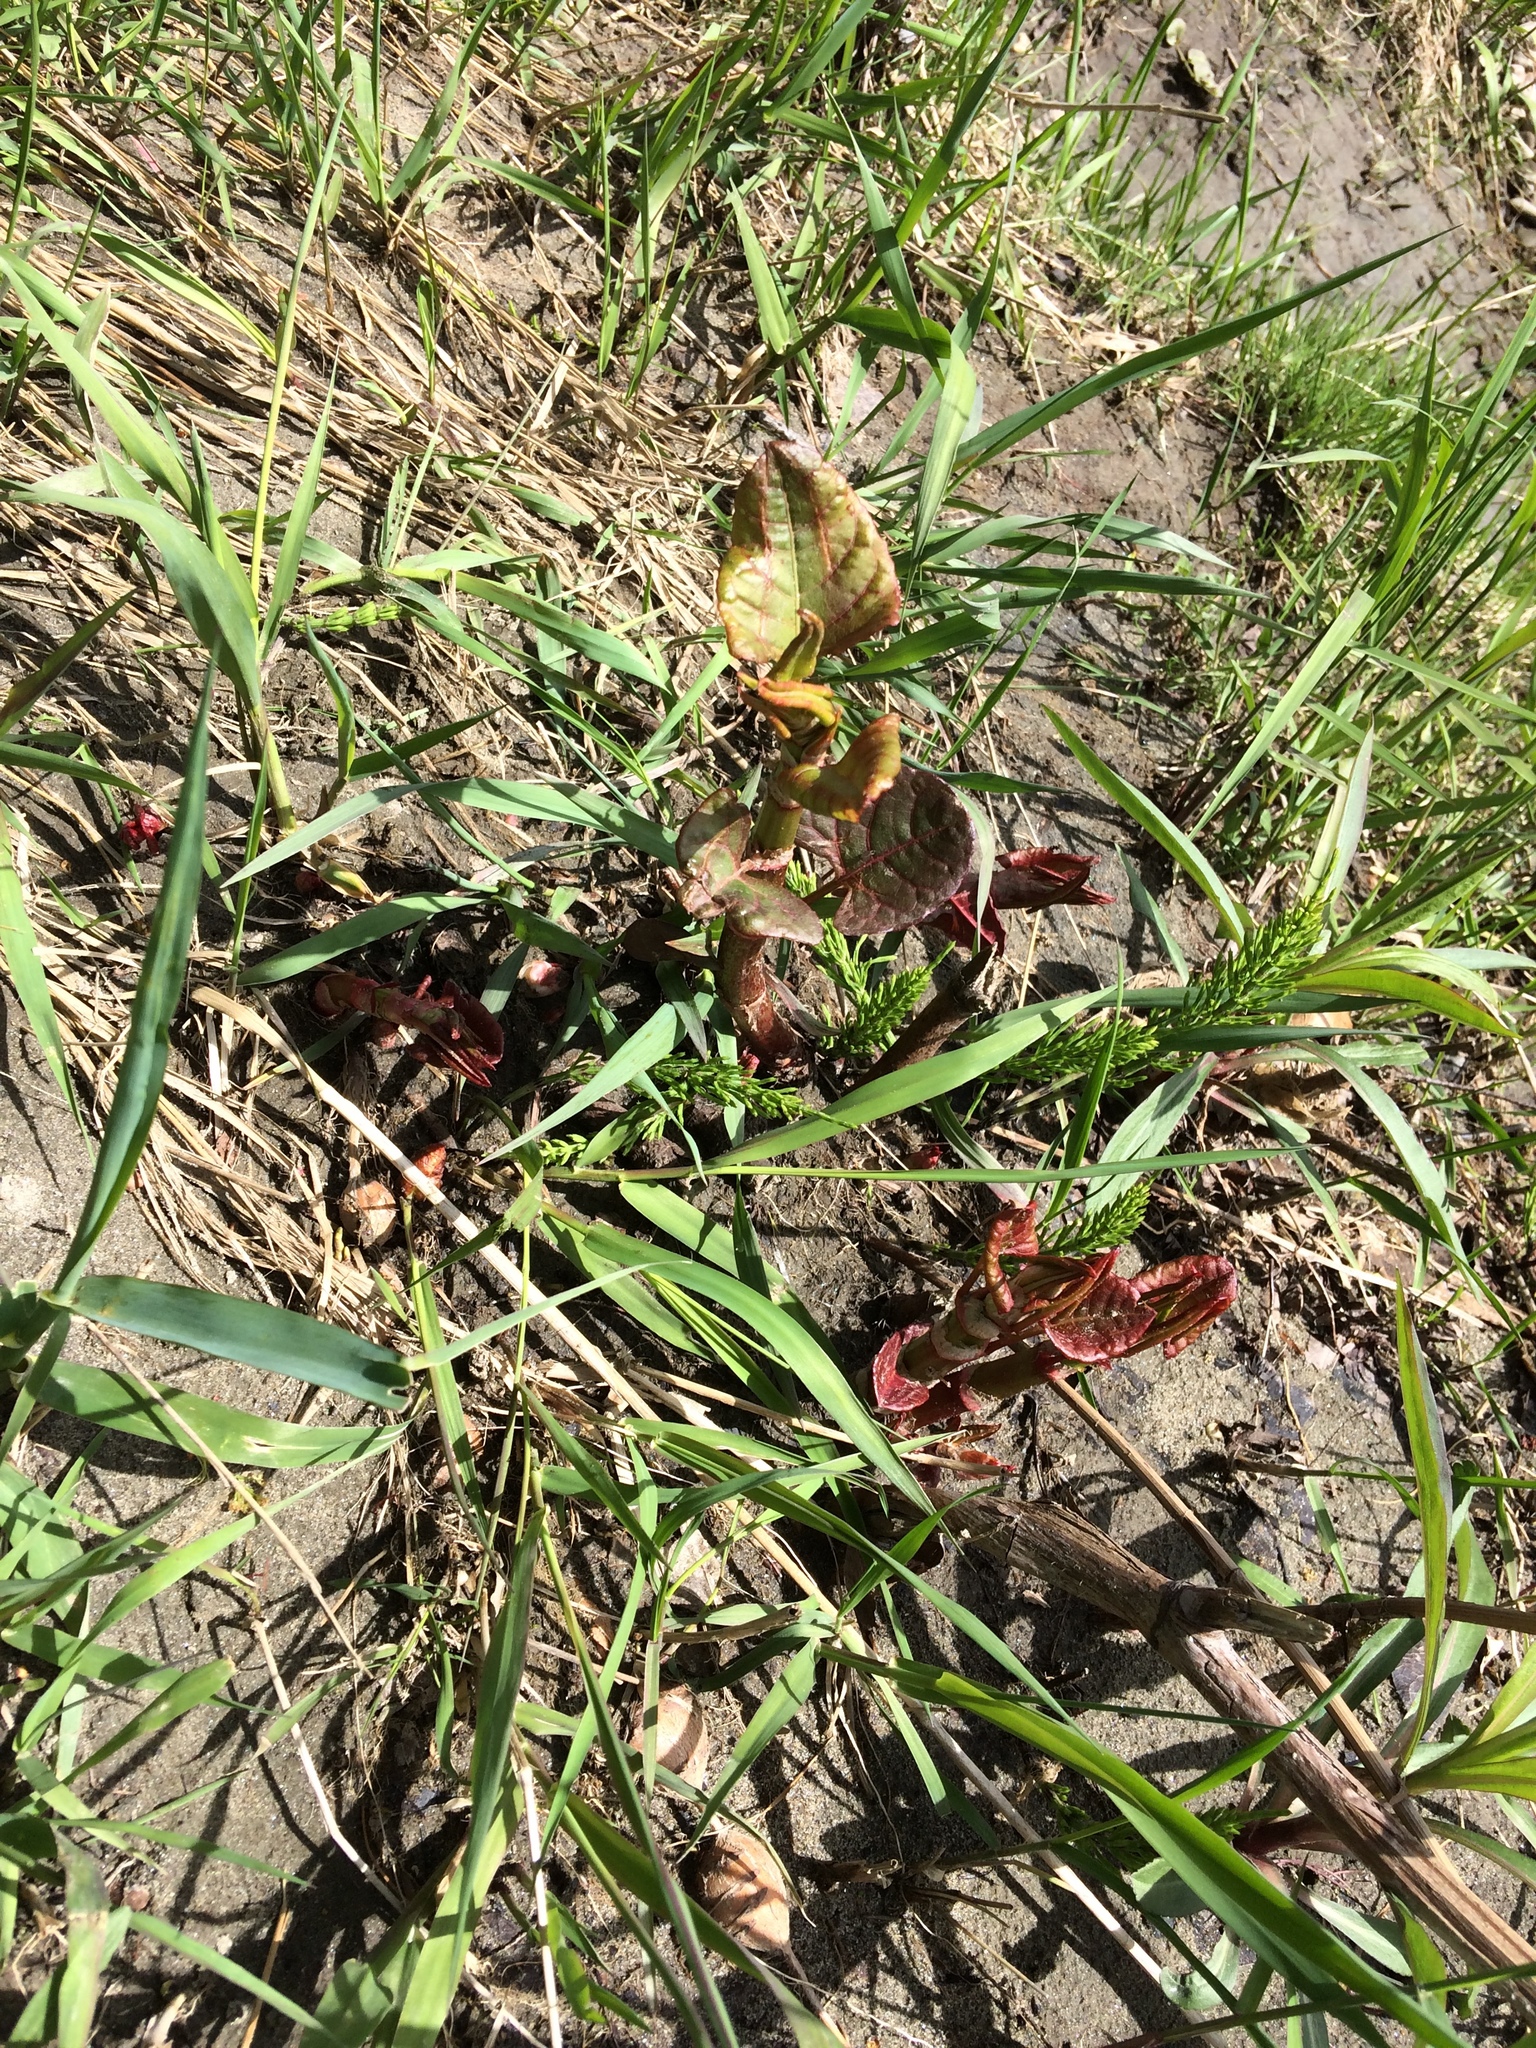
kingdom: Plantae
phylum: Tracheophyta
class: Magnoliopsida
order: Caryophyllales
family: Polygonaceae
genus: Reynoutria
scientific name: Reynoutria japonica
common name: Japanese knotweed
